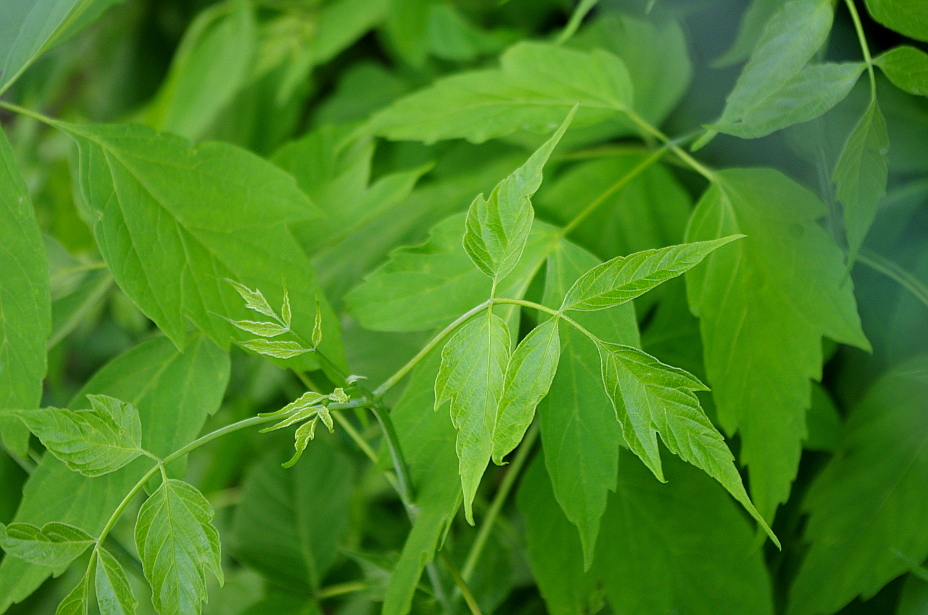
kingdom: Plantae
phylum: Tracheophyta
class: Magnoliopsida
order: Sapindales
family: Sapindaceae
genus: Acer
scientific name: Acer negundo
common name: Ashleaf maple
